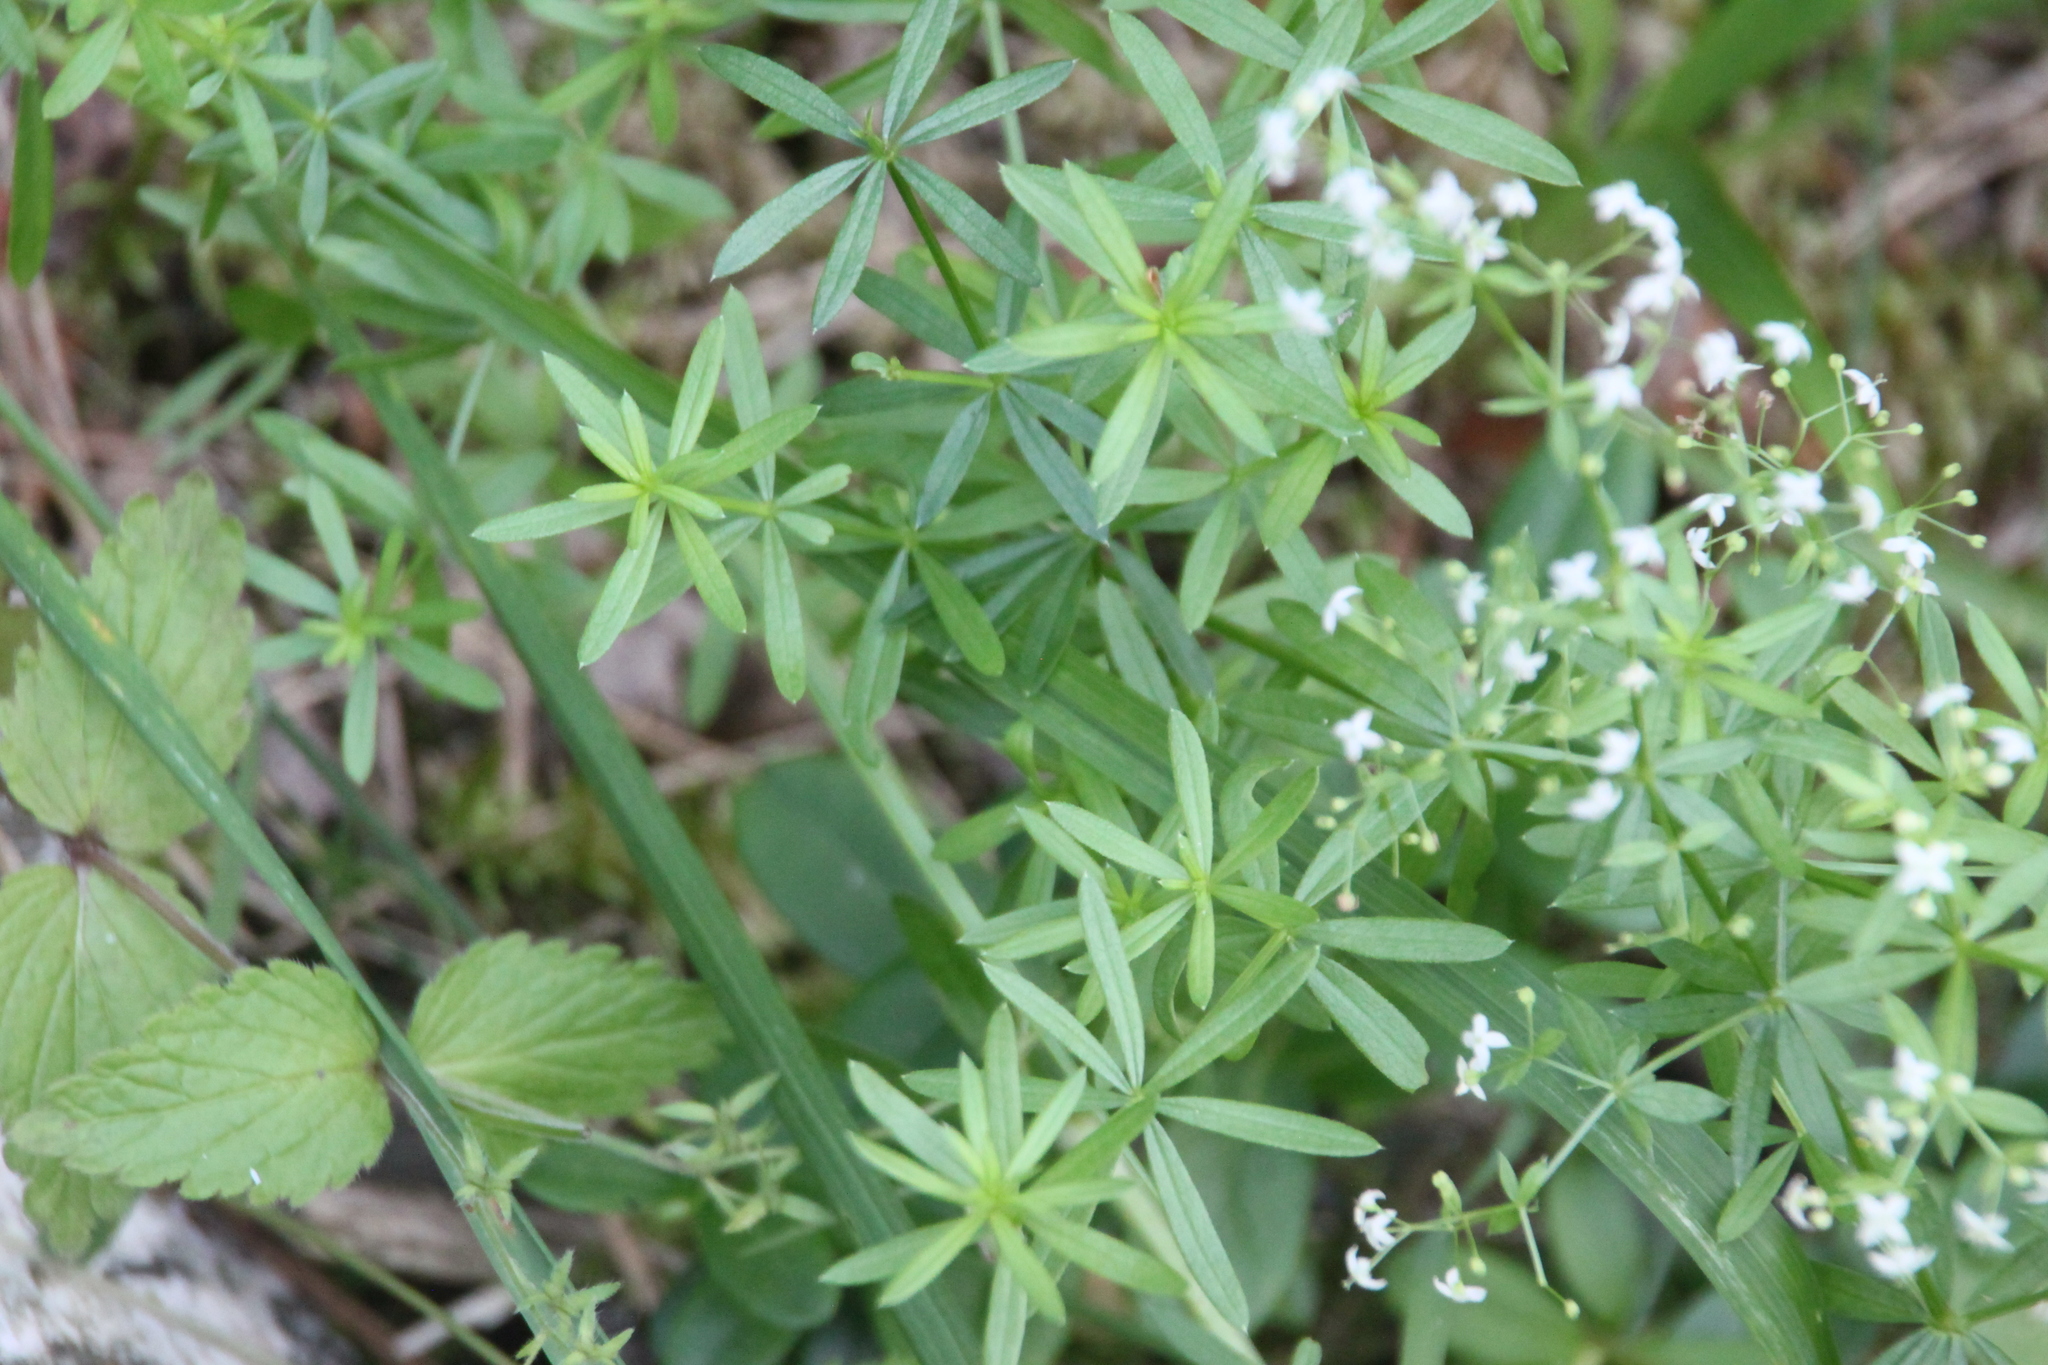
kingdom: Plantae
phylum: Tracheophyta
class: Magnoliopsida
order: Gentianales
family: Rubiaceae
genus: Galium
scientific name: Galium mollugo
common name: Hedge bedstraw
